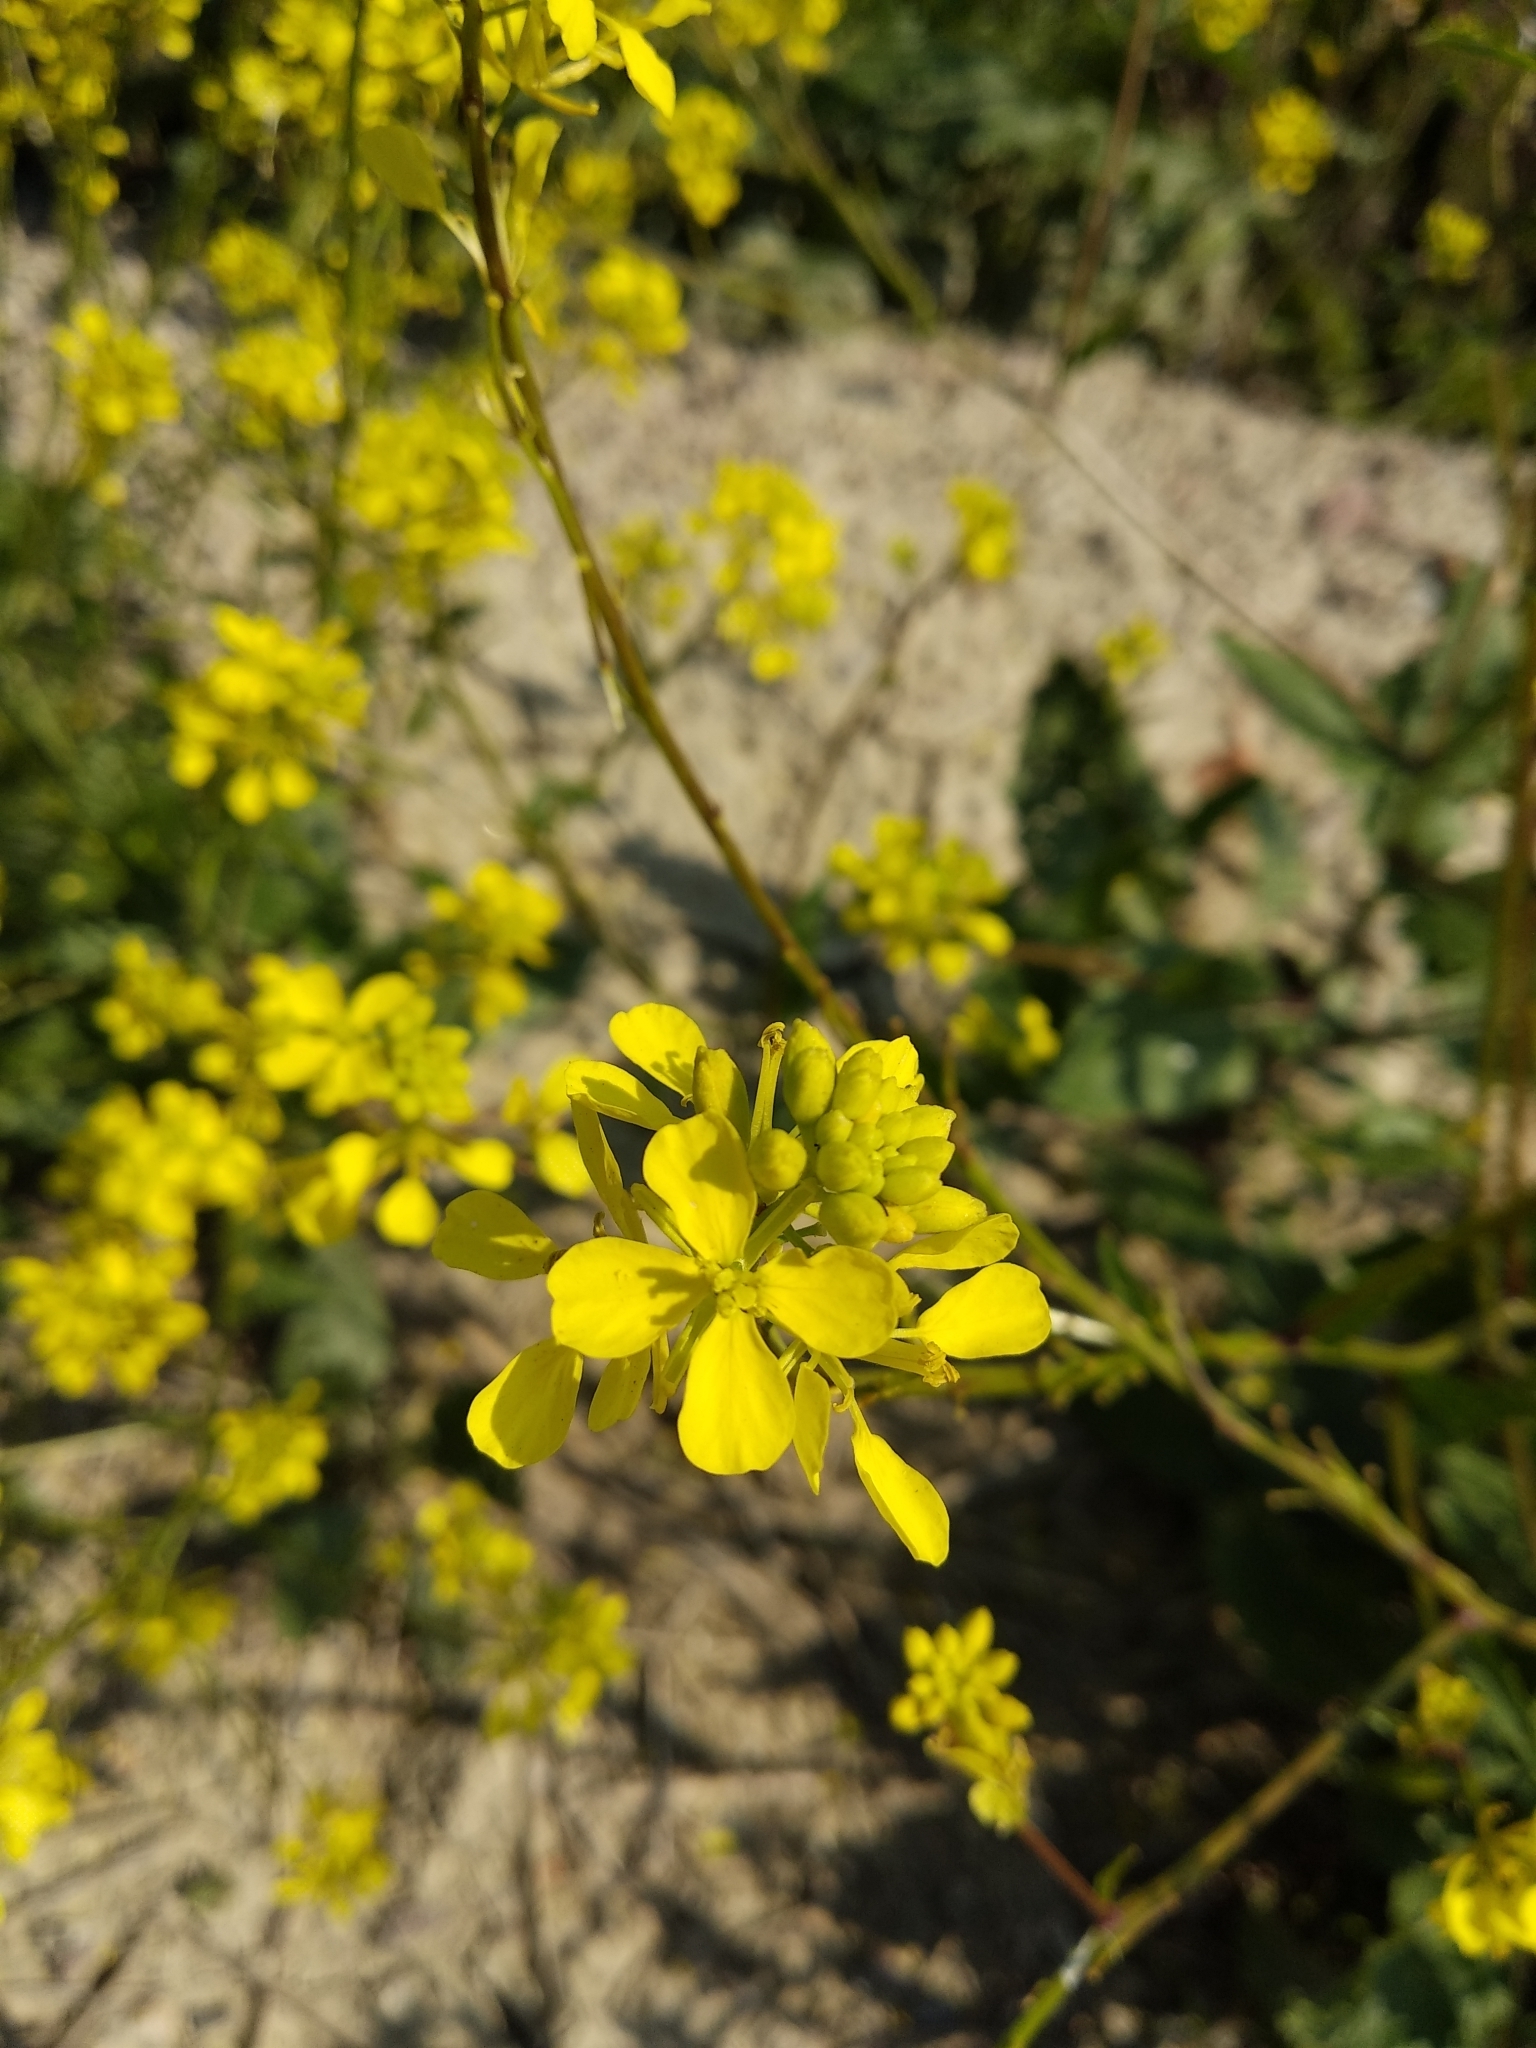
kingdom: Plantae
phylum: Tracheophyta
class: Magnoliopsida
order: Brassicales
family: Brassicaceae
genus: Sinapis
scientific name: Sinapis arvensis
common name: Charlock
